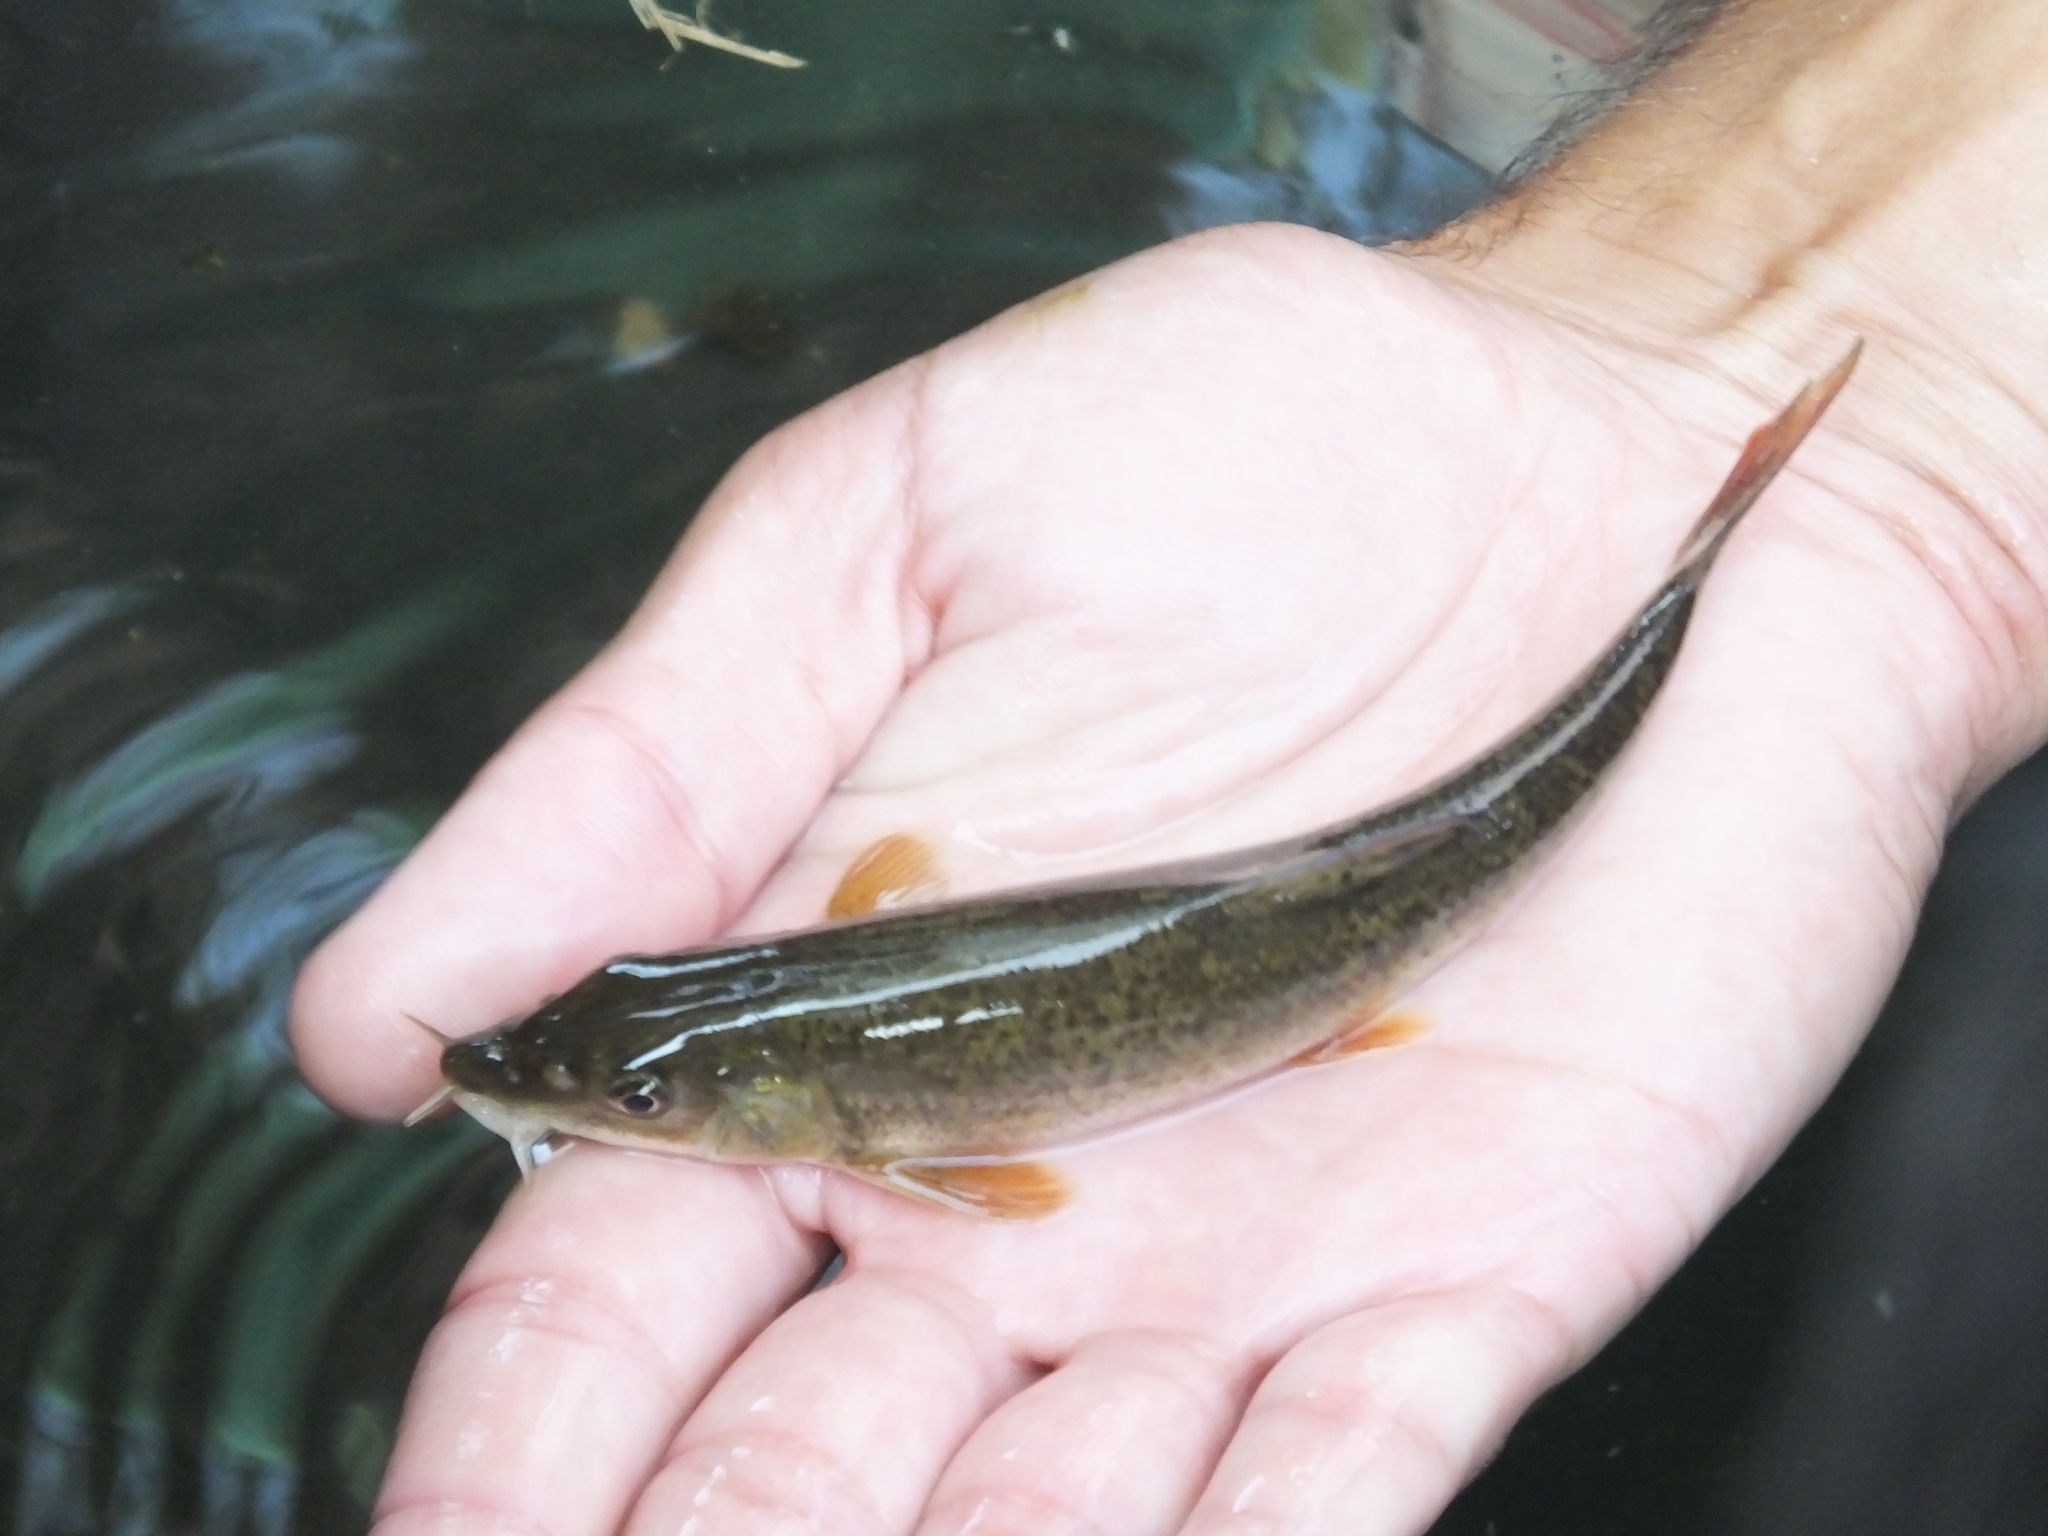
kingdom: Animalia
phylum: Chordata
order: Cypriniformes
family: Cyprinidae
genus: Barbus
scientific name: Barbus barbus
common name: Barbel
